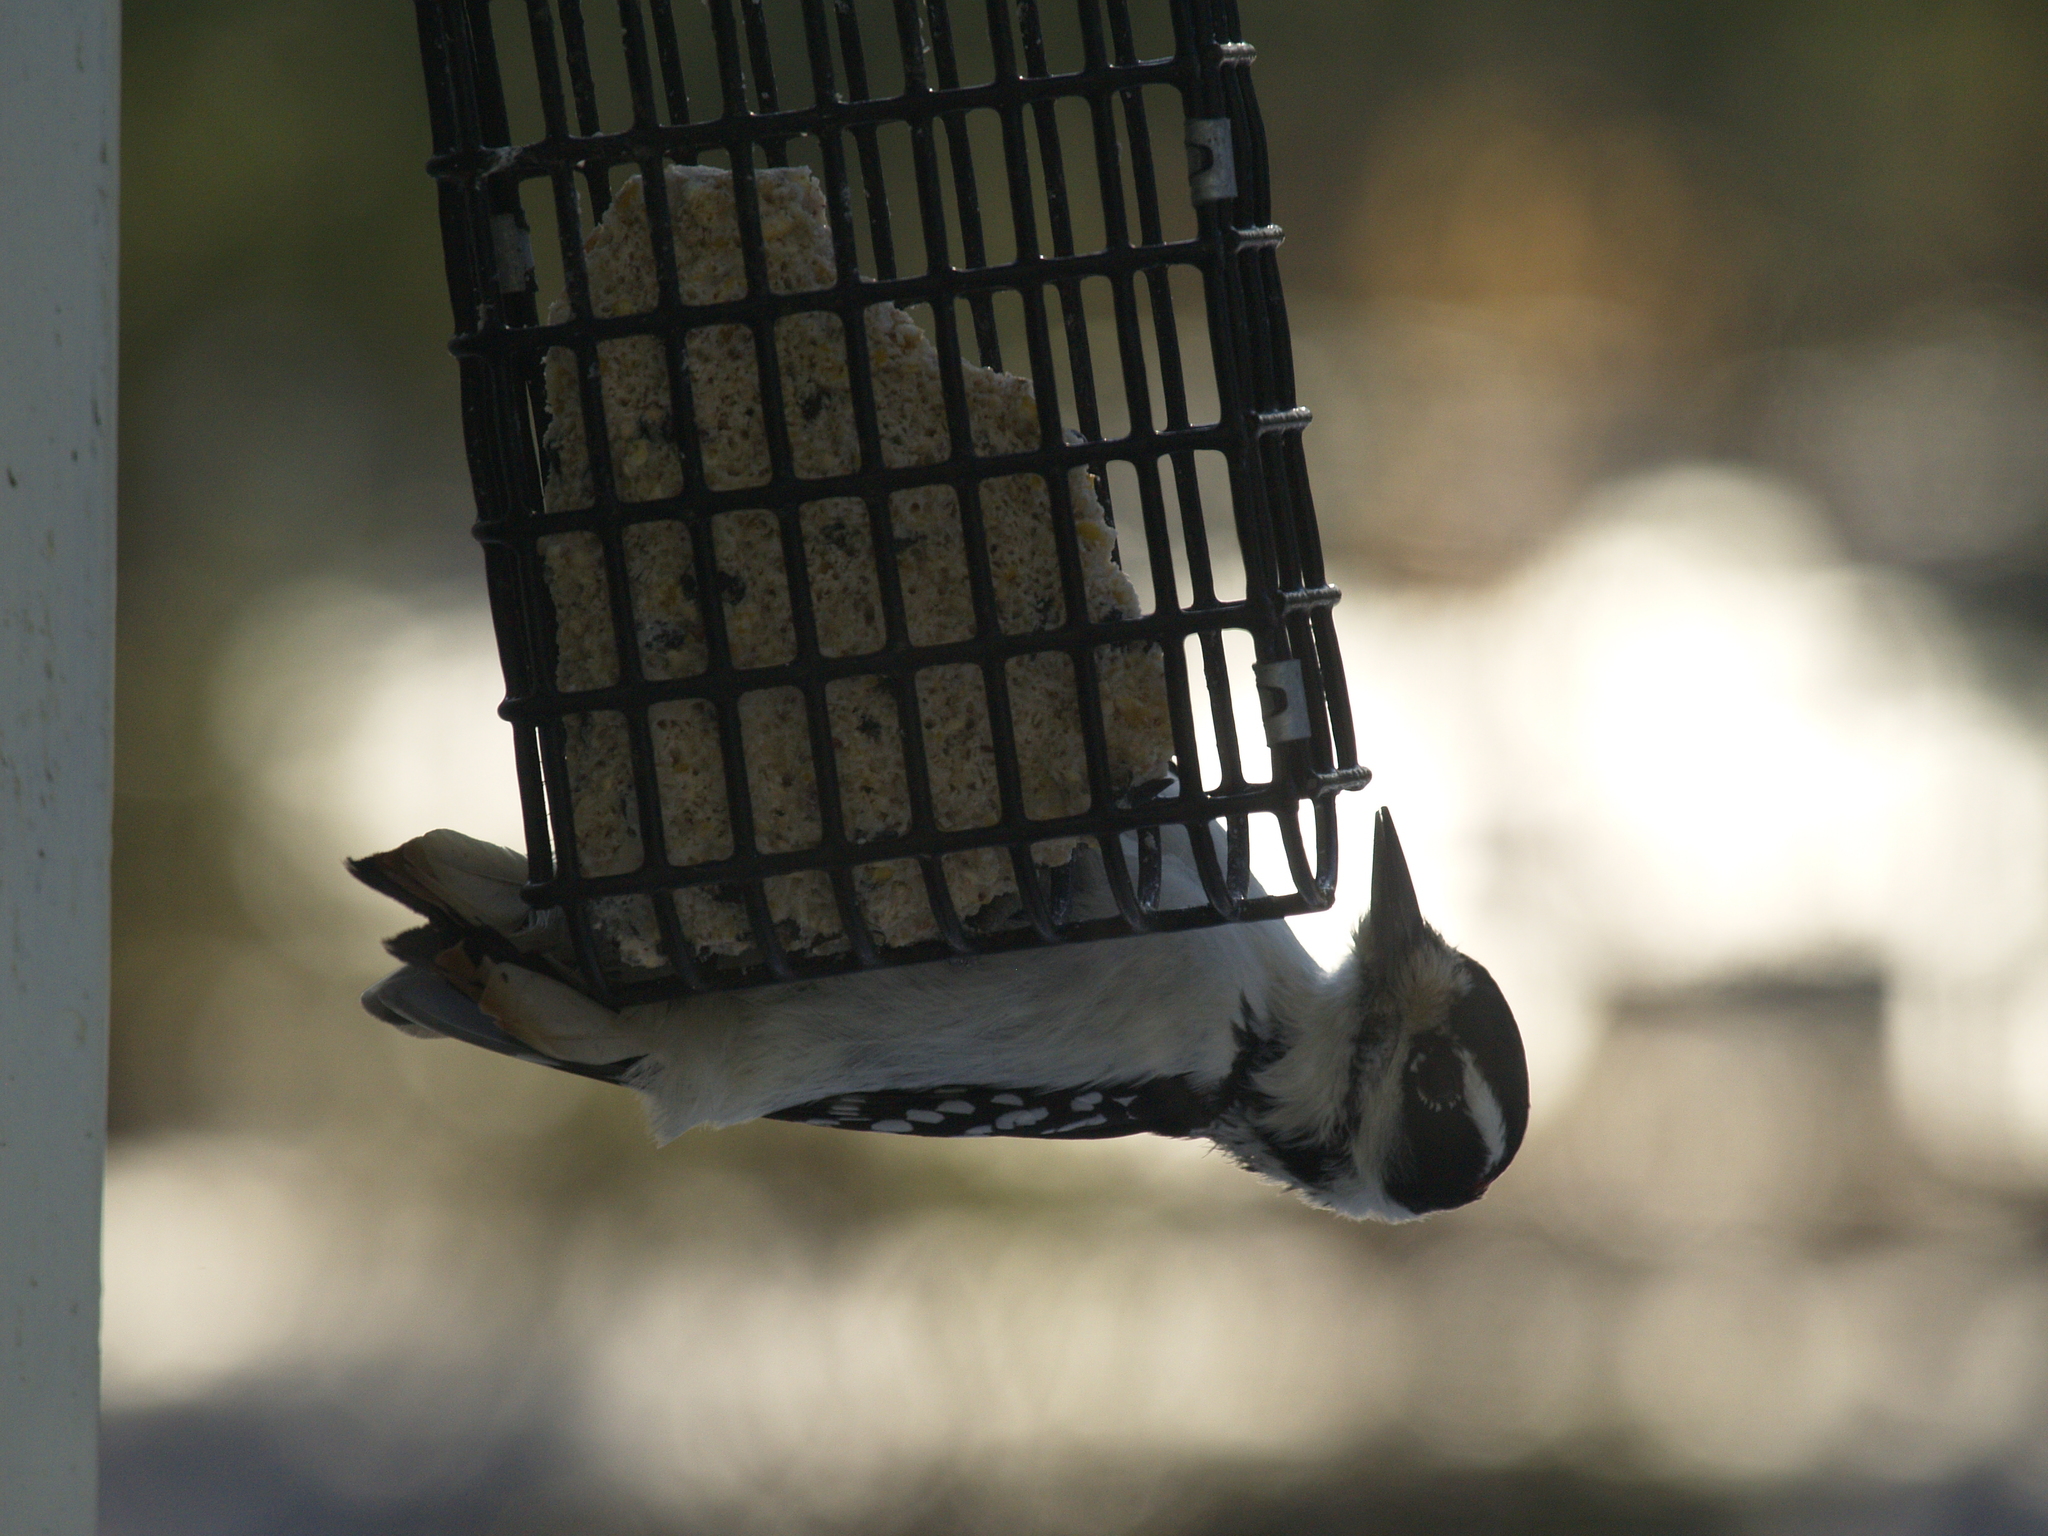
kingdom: Animalia
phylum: Chordata
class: Aves
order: Piciformes
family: Picidae
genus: Dryobates
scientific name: Dryobates pubescens
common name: Downy woodpecker
